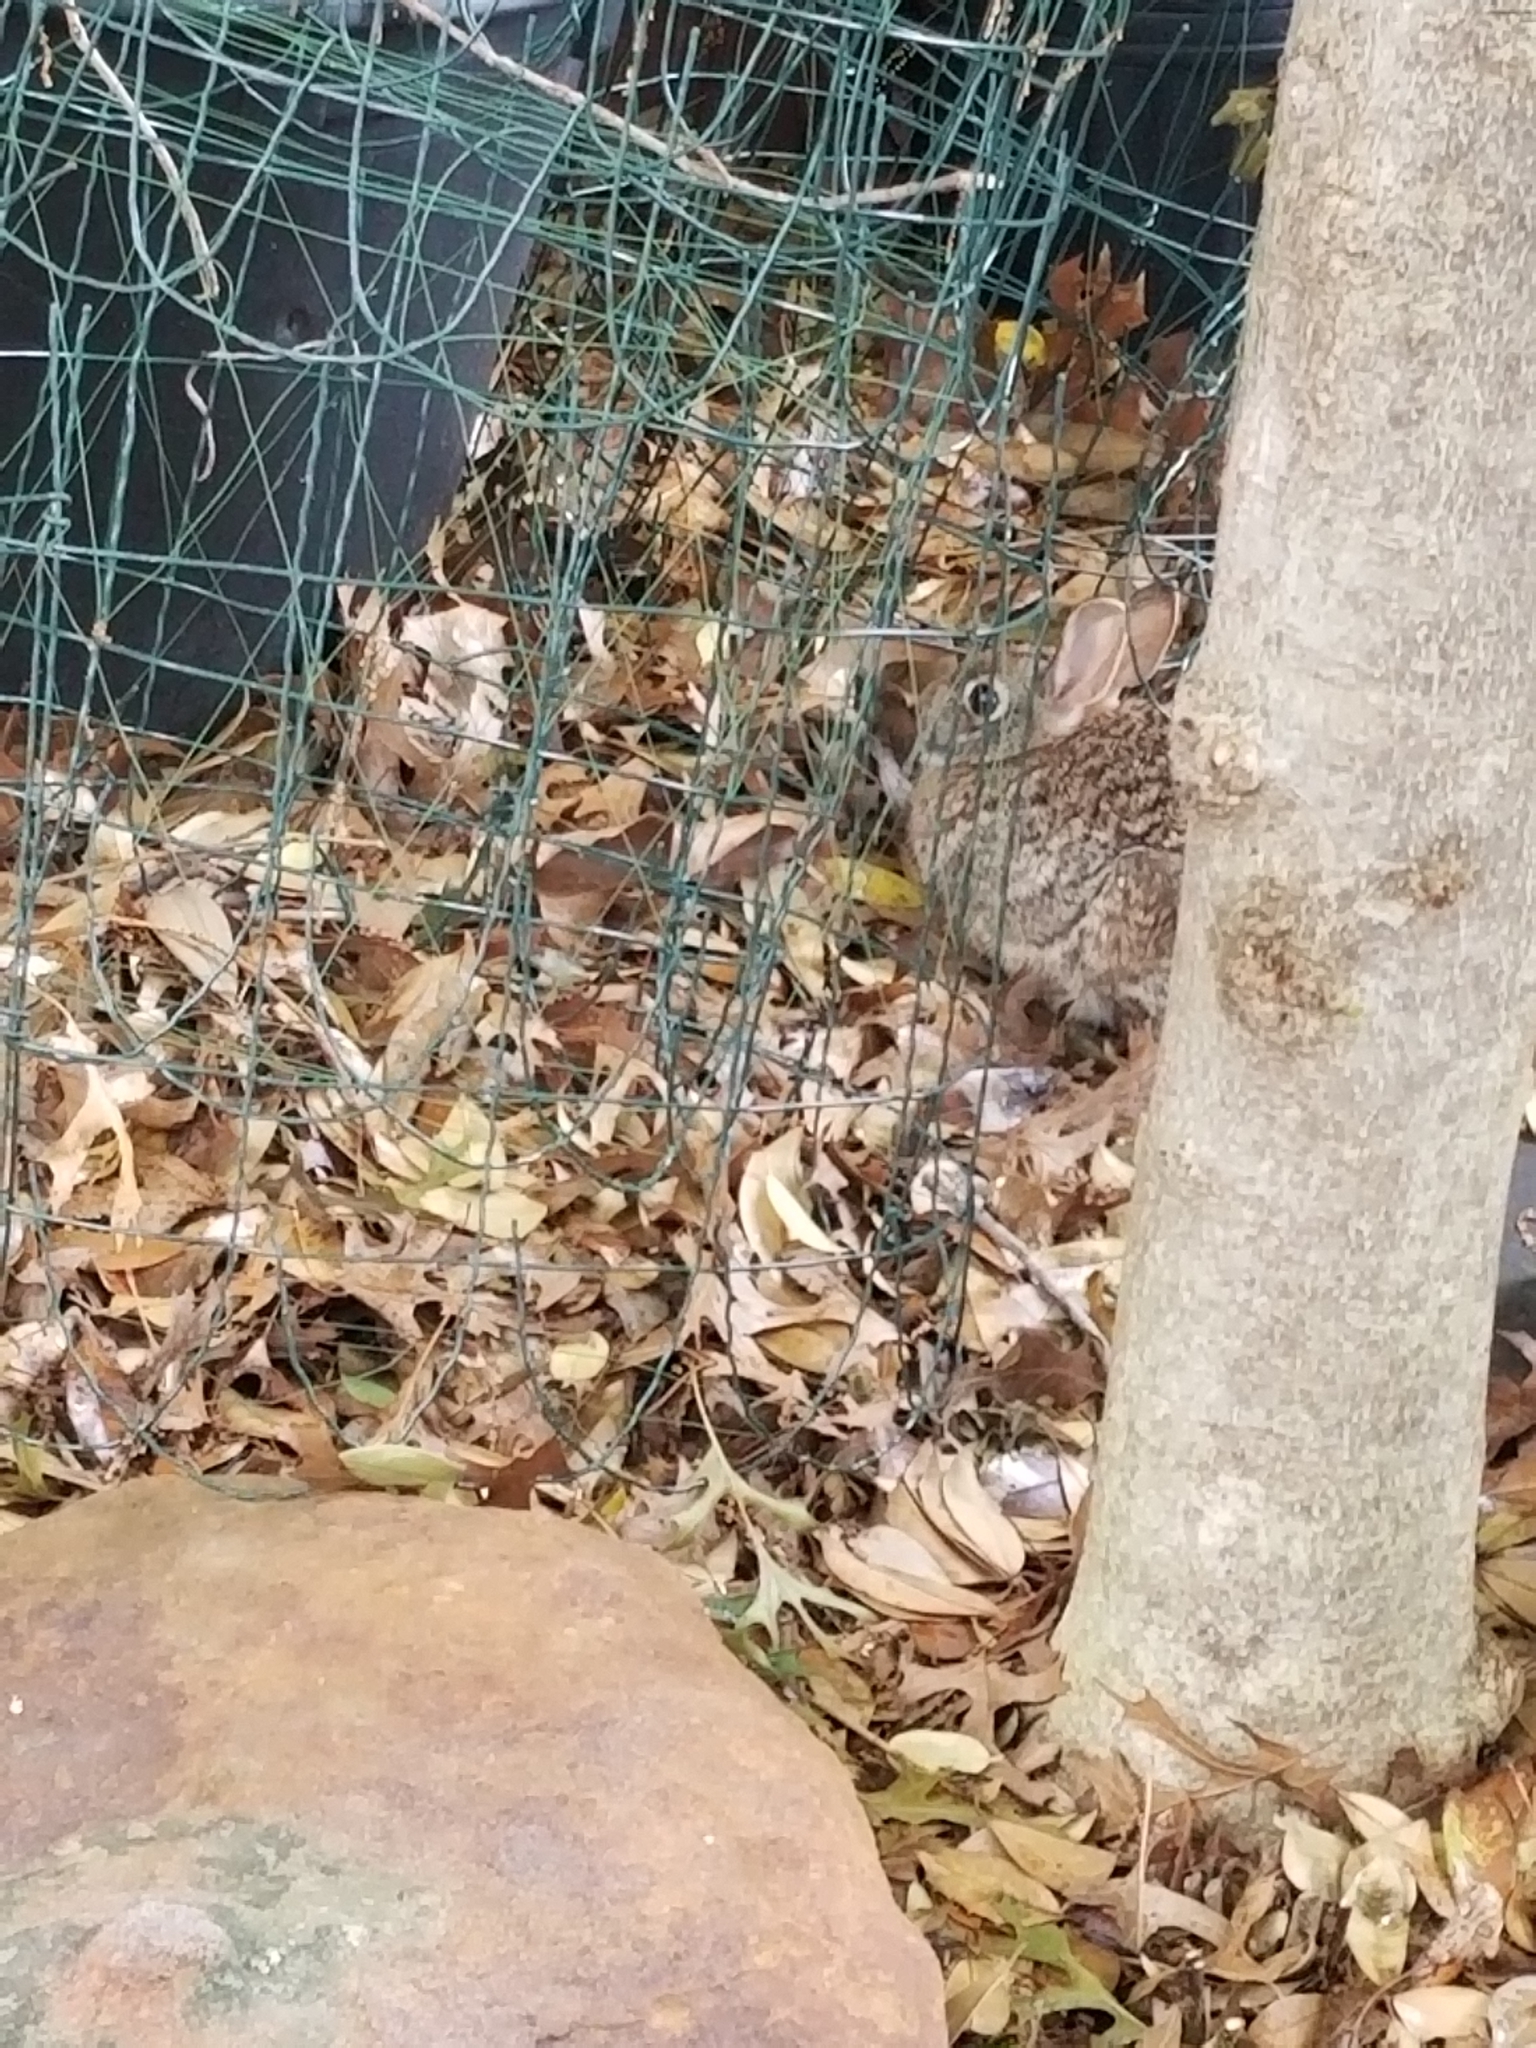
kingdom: Animalia
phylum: Chordata
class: Mammalia
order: Lagomorpha
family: Leporidae
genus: Sylvilagus
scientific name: Sylvilagus floridanus
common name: Eastern cottontail
